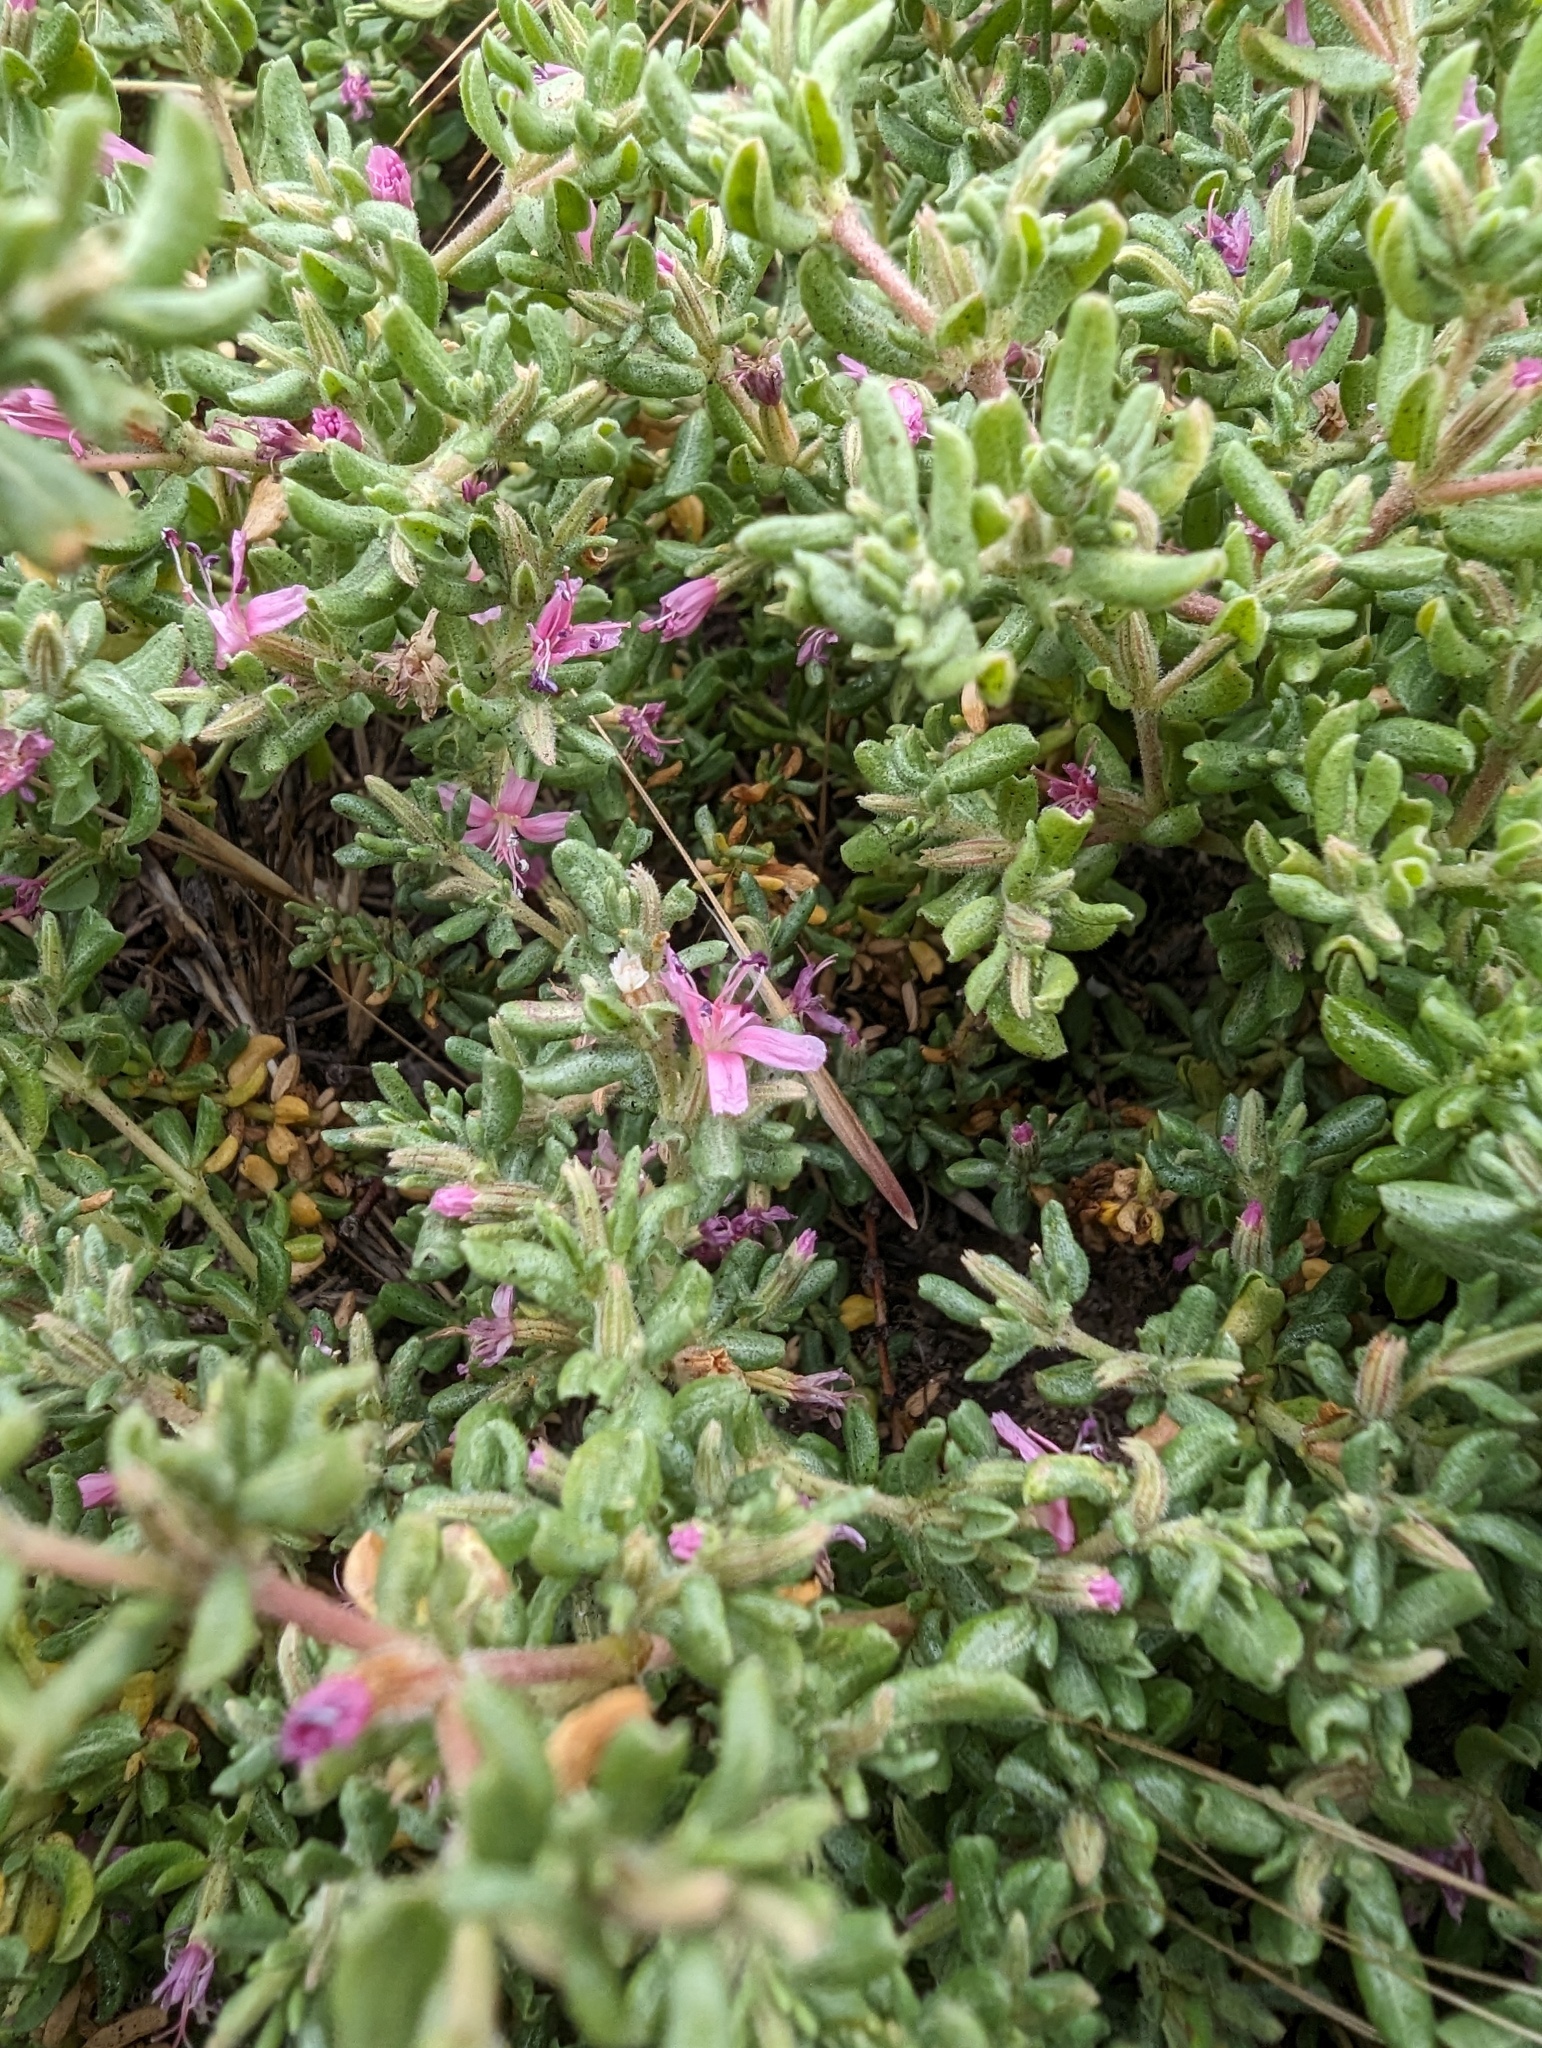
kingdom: Plantae
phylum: Tracheophyta
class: Magnoliopsida
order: Caryophyllales
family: Frankeniaceae
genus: Frankenia
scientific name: Frankenia salina
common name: Alkali seaheath
